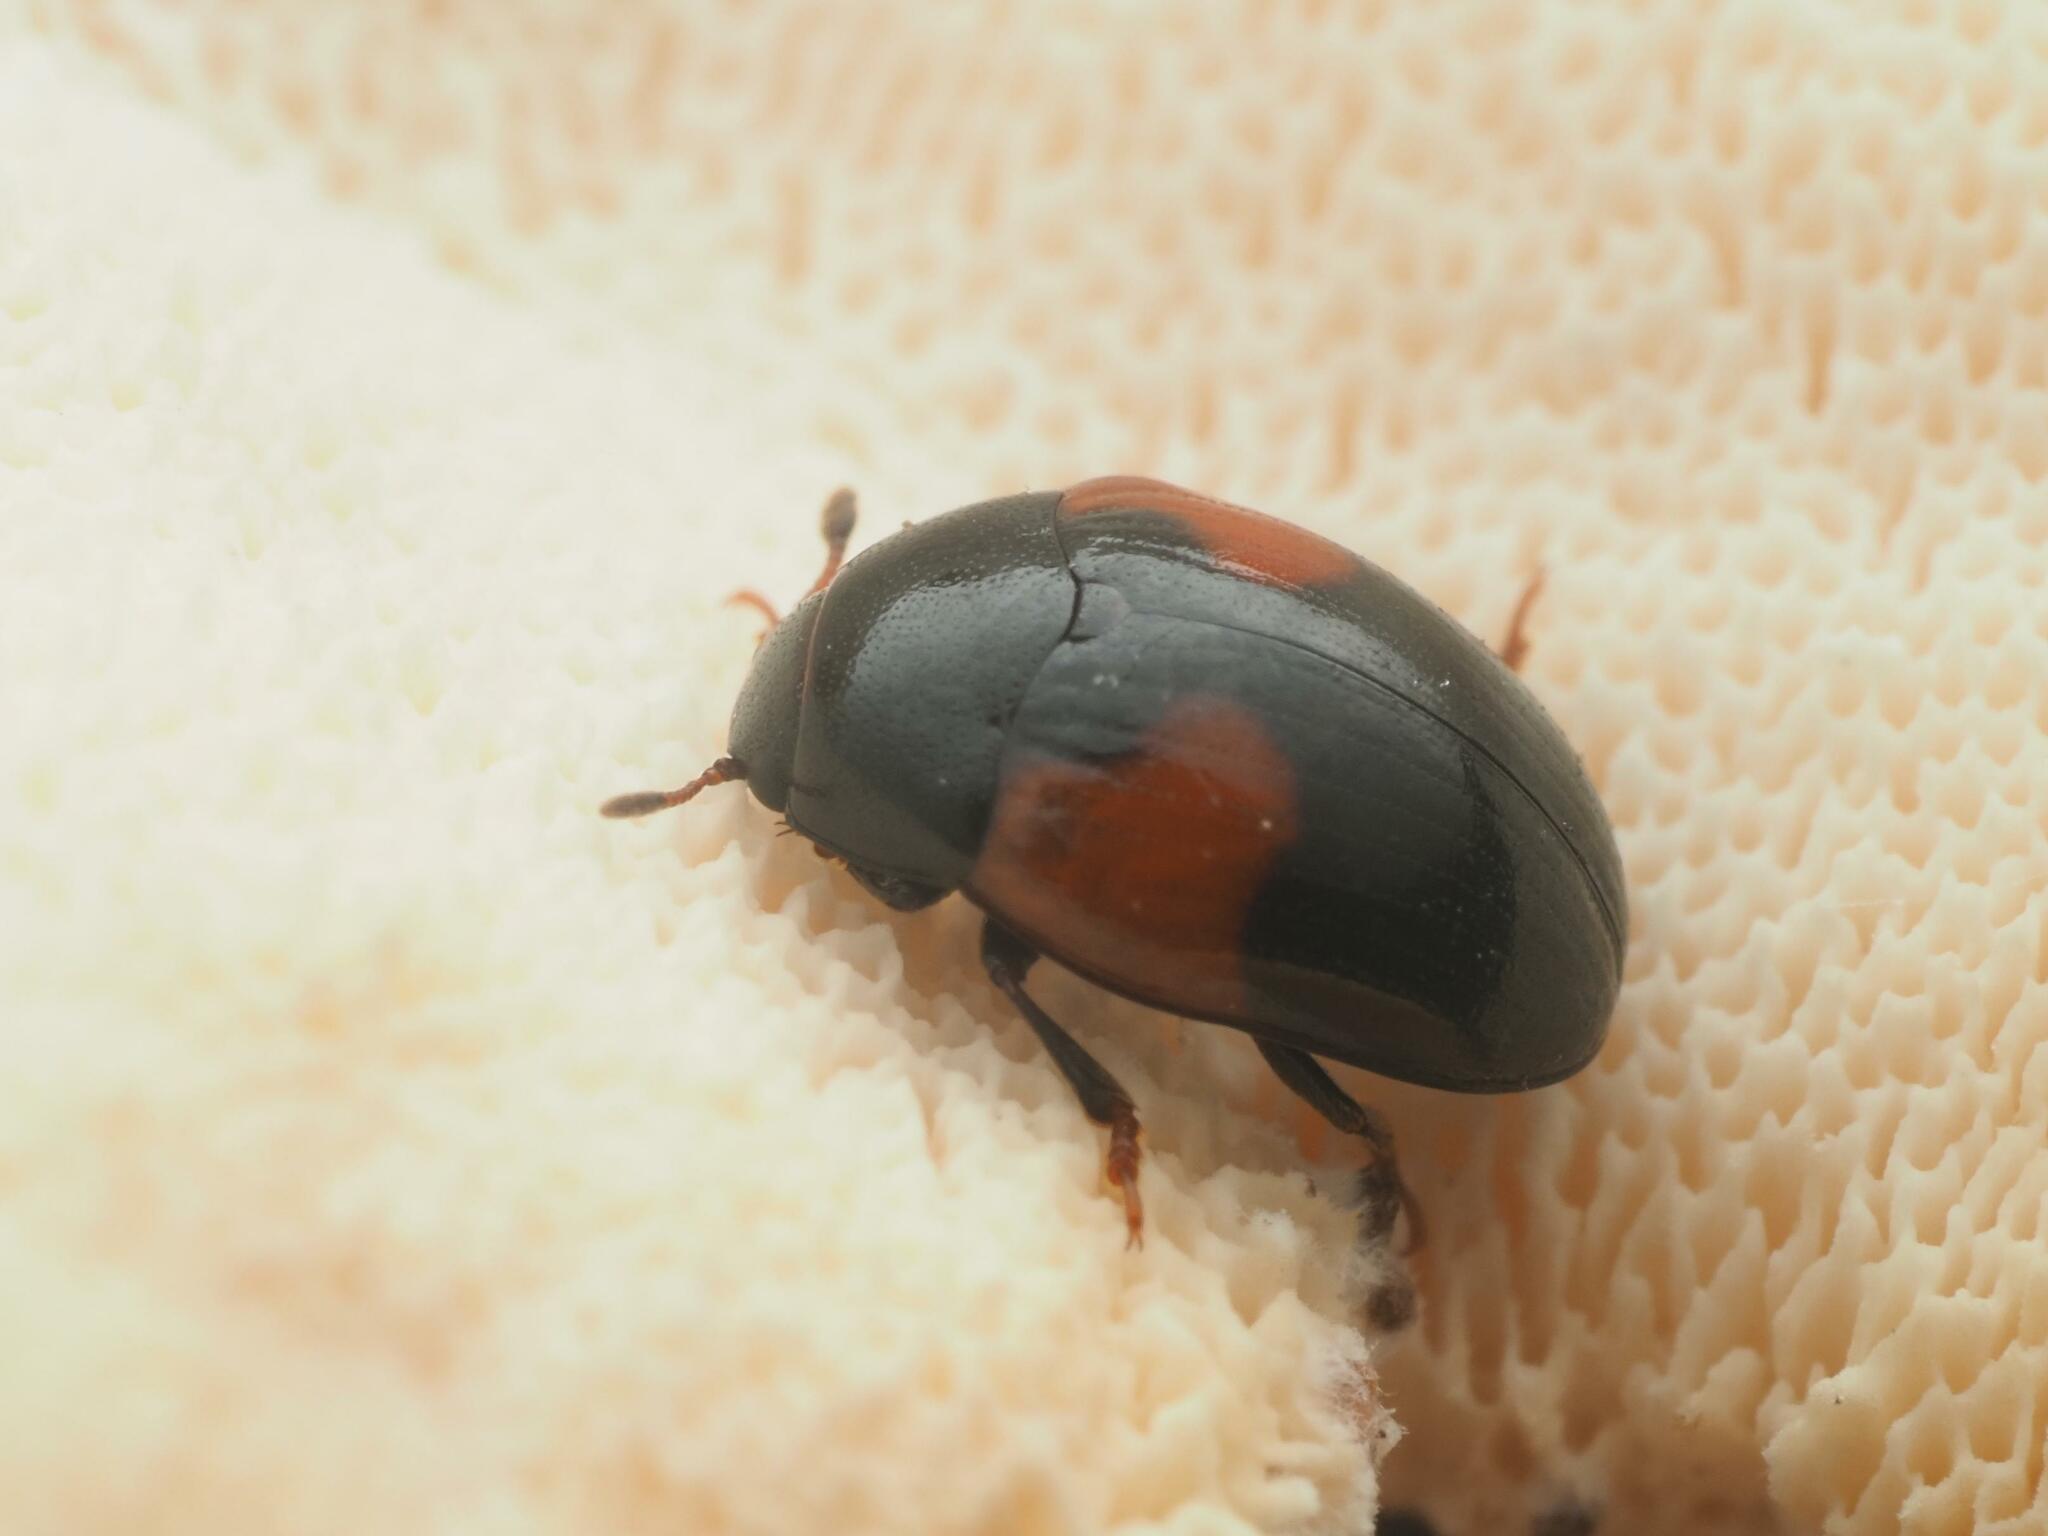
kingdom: Animalia
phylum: Arthropoda
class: Insecta
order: Coleoptera
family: Erotylidae
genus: Tritoma
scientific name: Tritoma bipustulata
